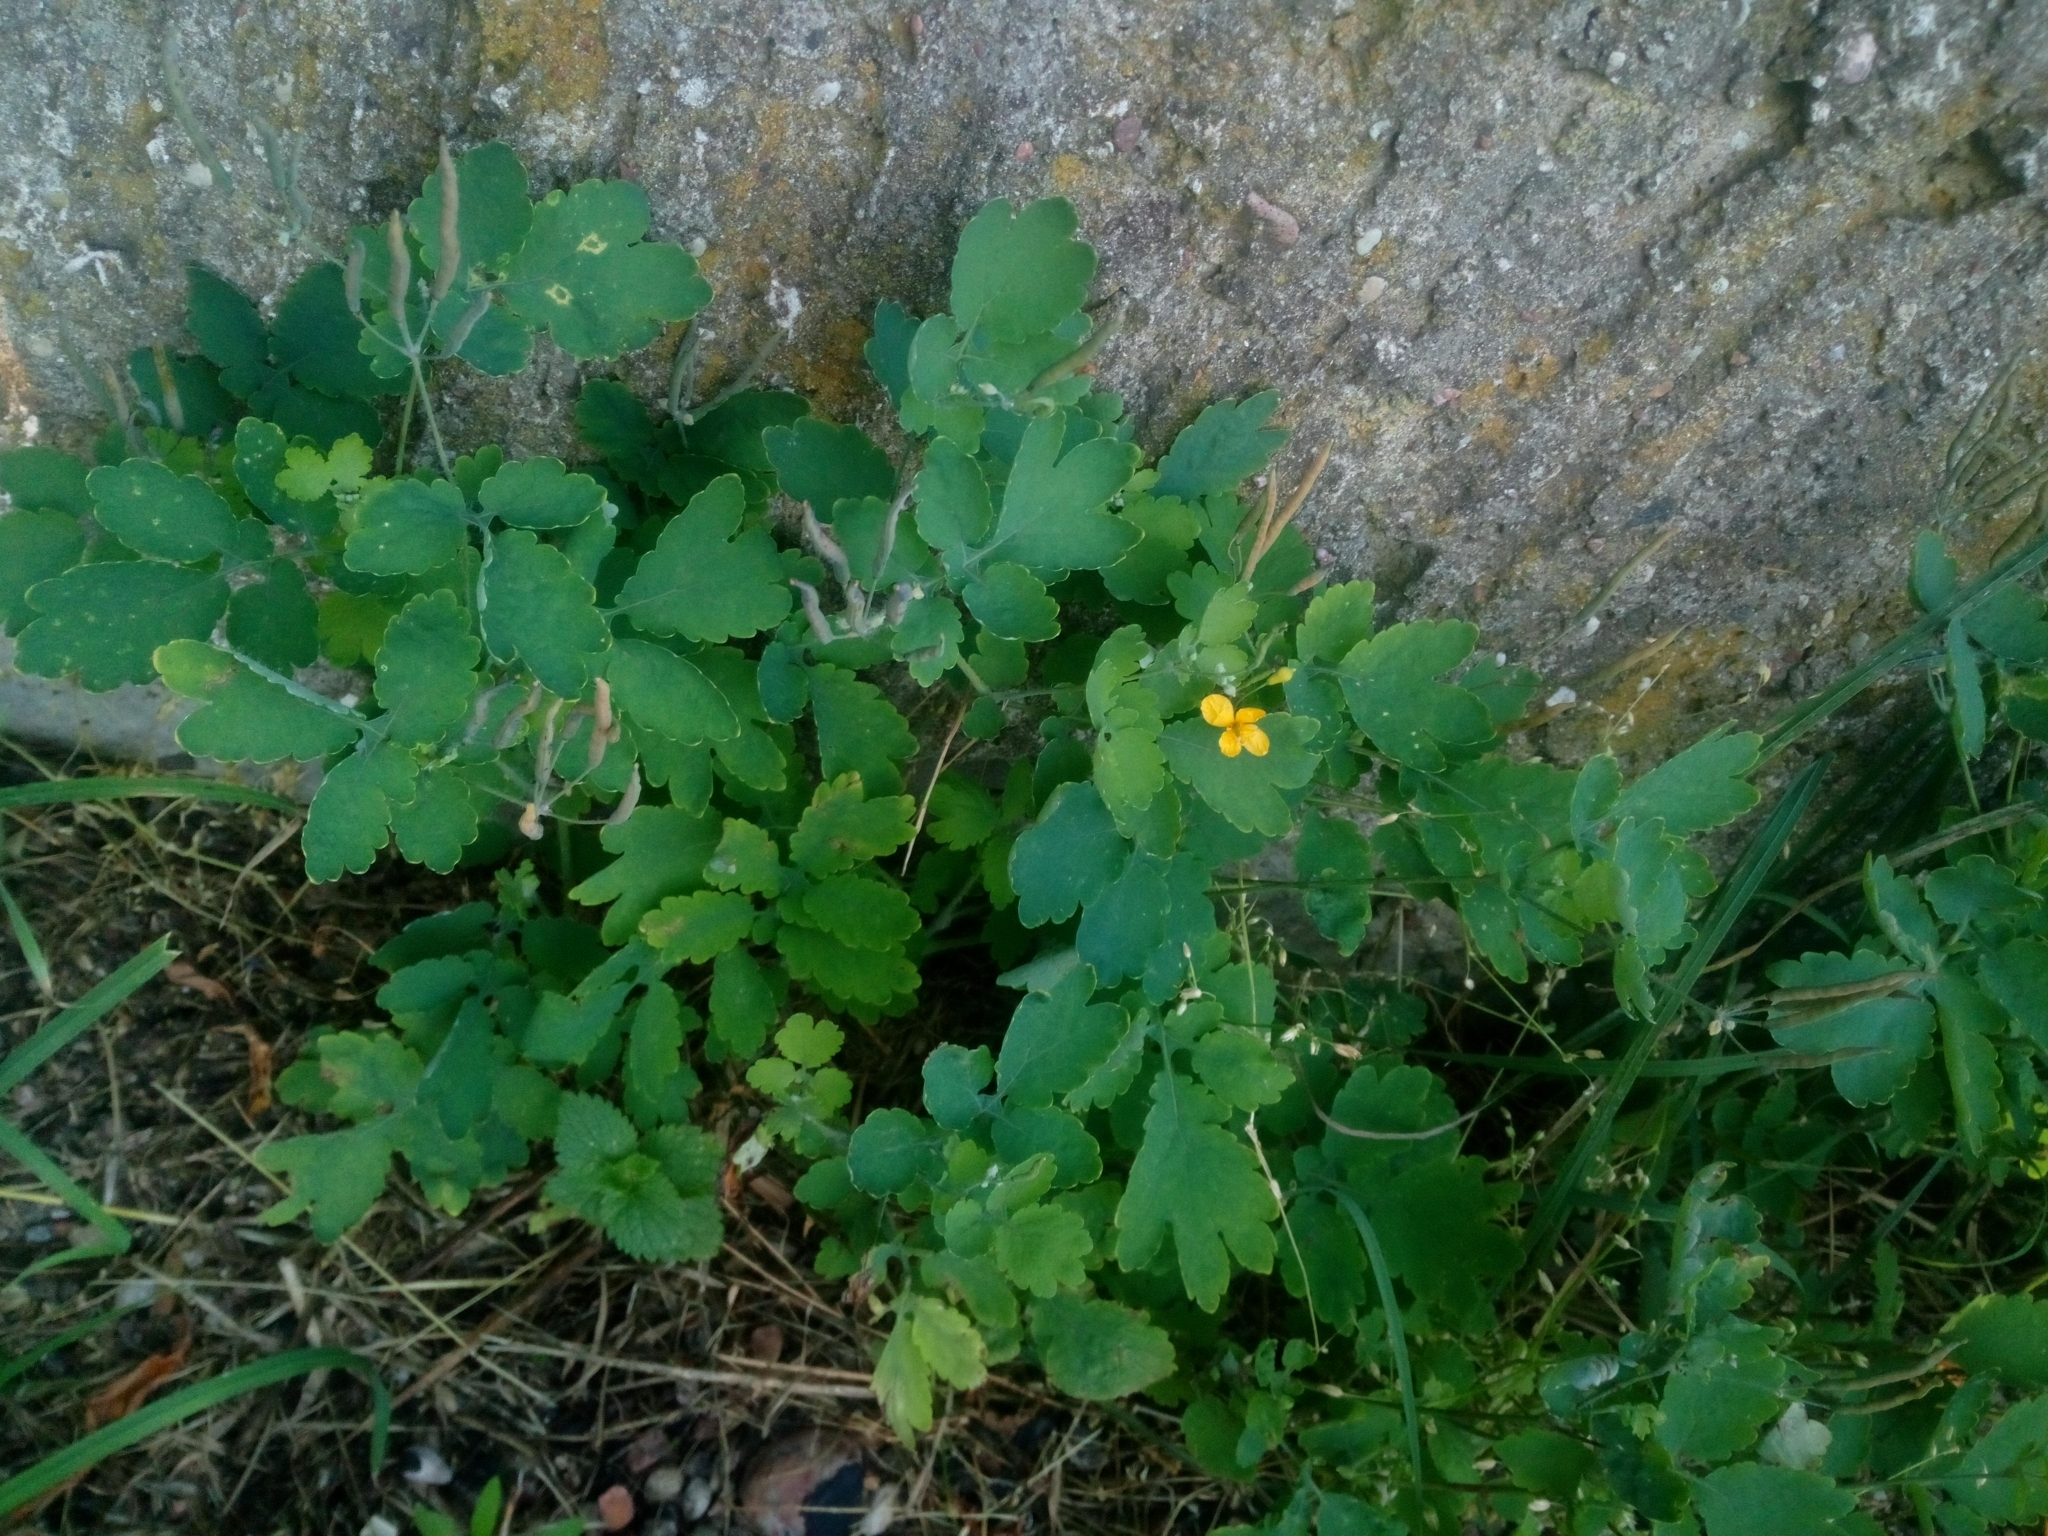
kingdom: Plantae
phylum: Tracheophyta
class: Magnoliopsida
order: Ranunculales
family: Papaveraceae
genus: Chelidonium
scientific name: Chelidonium majus
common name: Greater celandine
